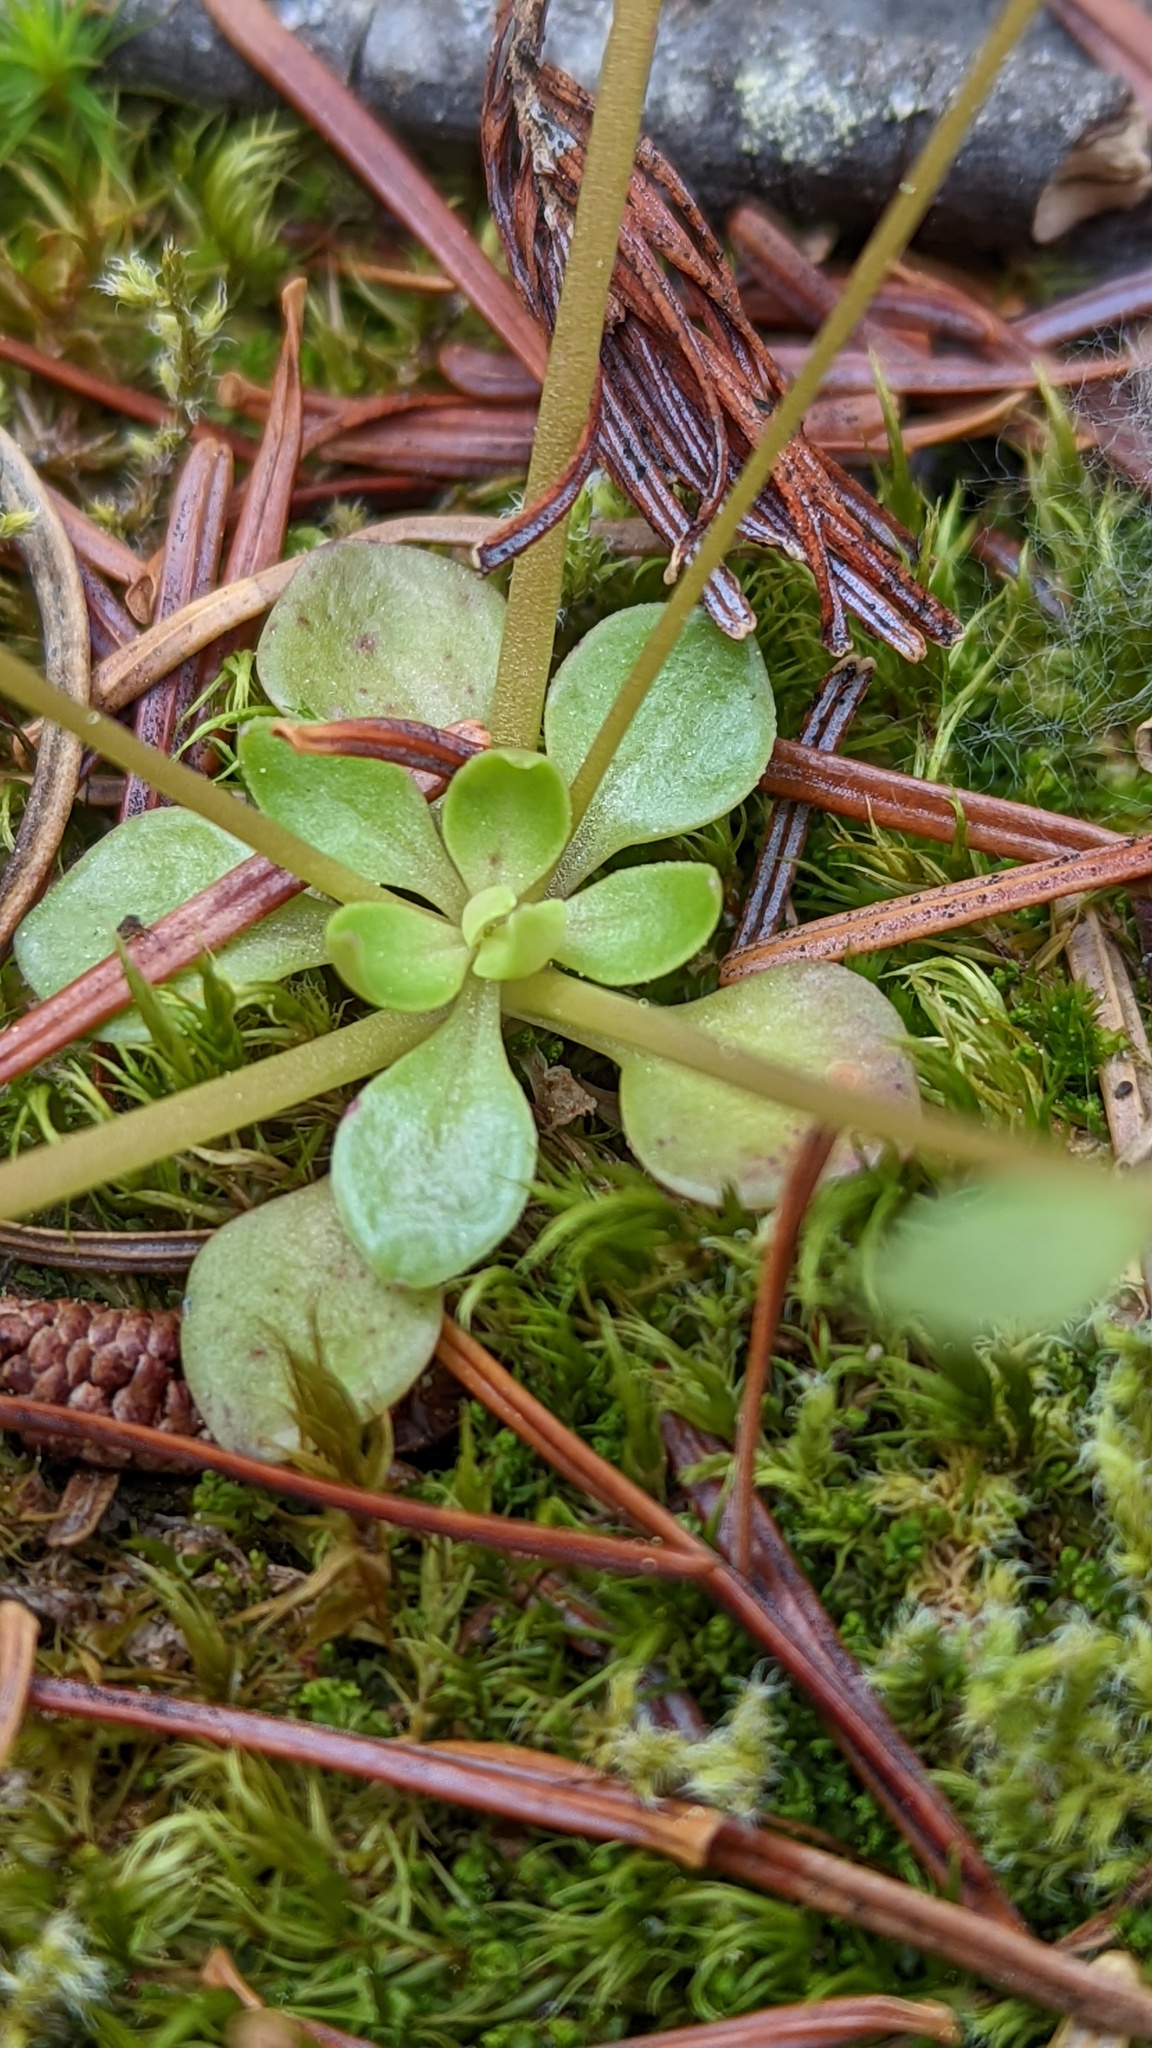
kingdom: Plantae
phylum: Tracheophyta
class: Magnoliopsida
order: Caryophyllales
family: Montiaceae
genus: Montia
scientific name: Montia parvifolia
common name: Small-leaved blinks
